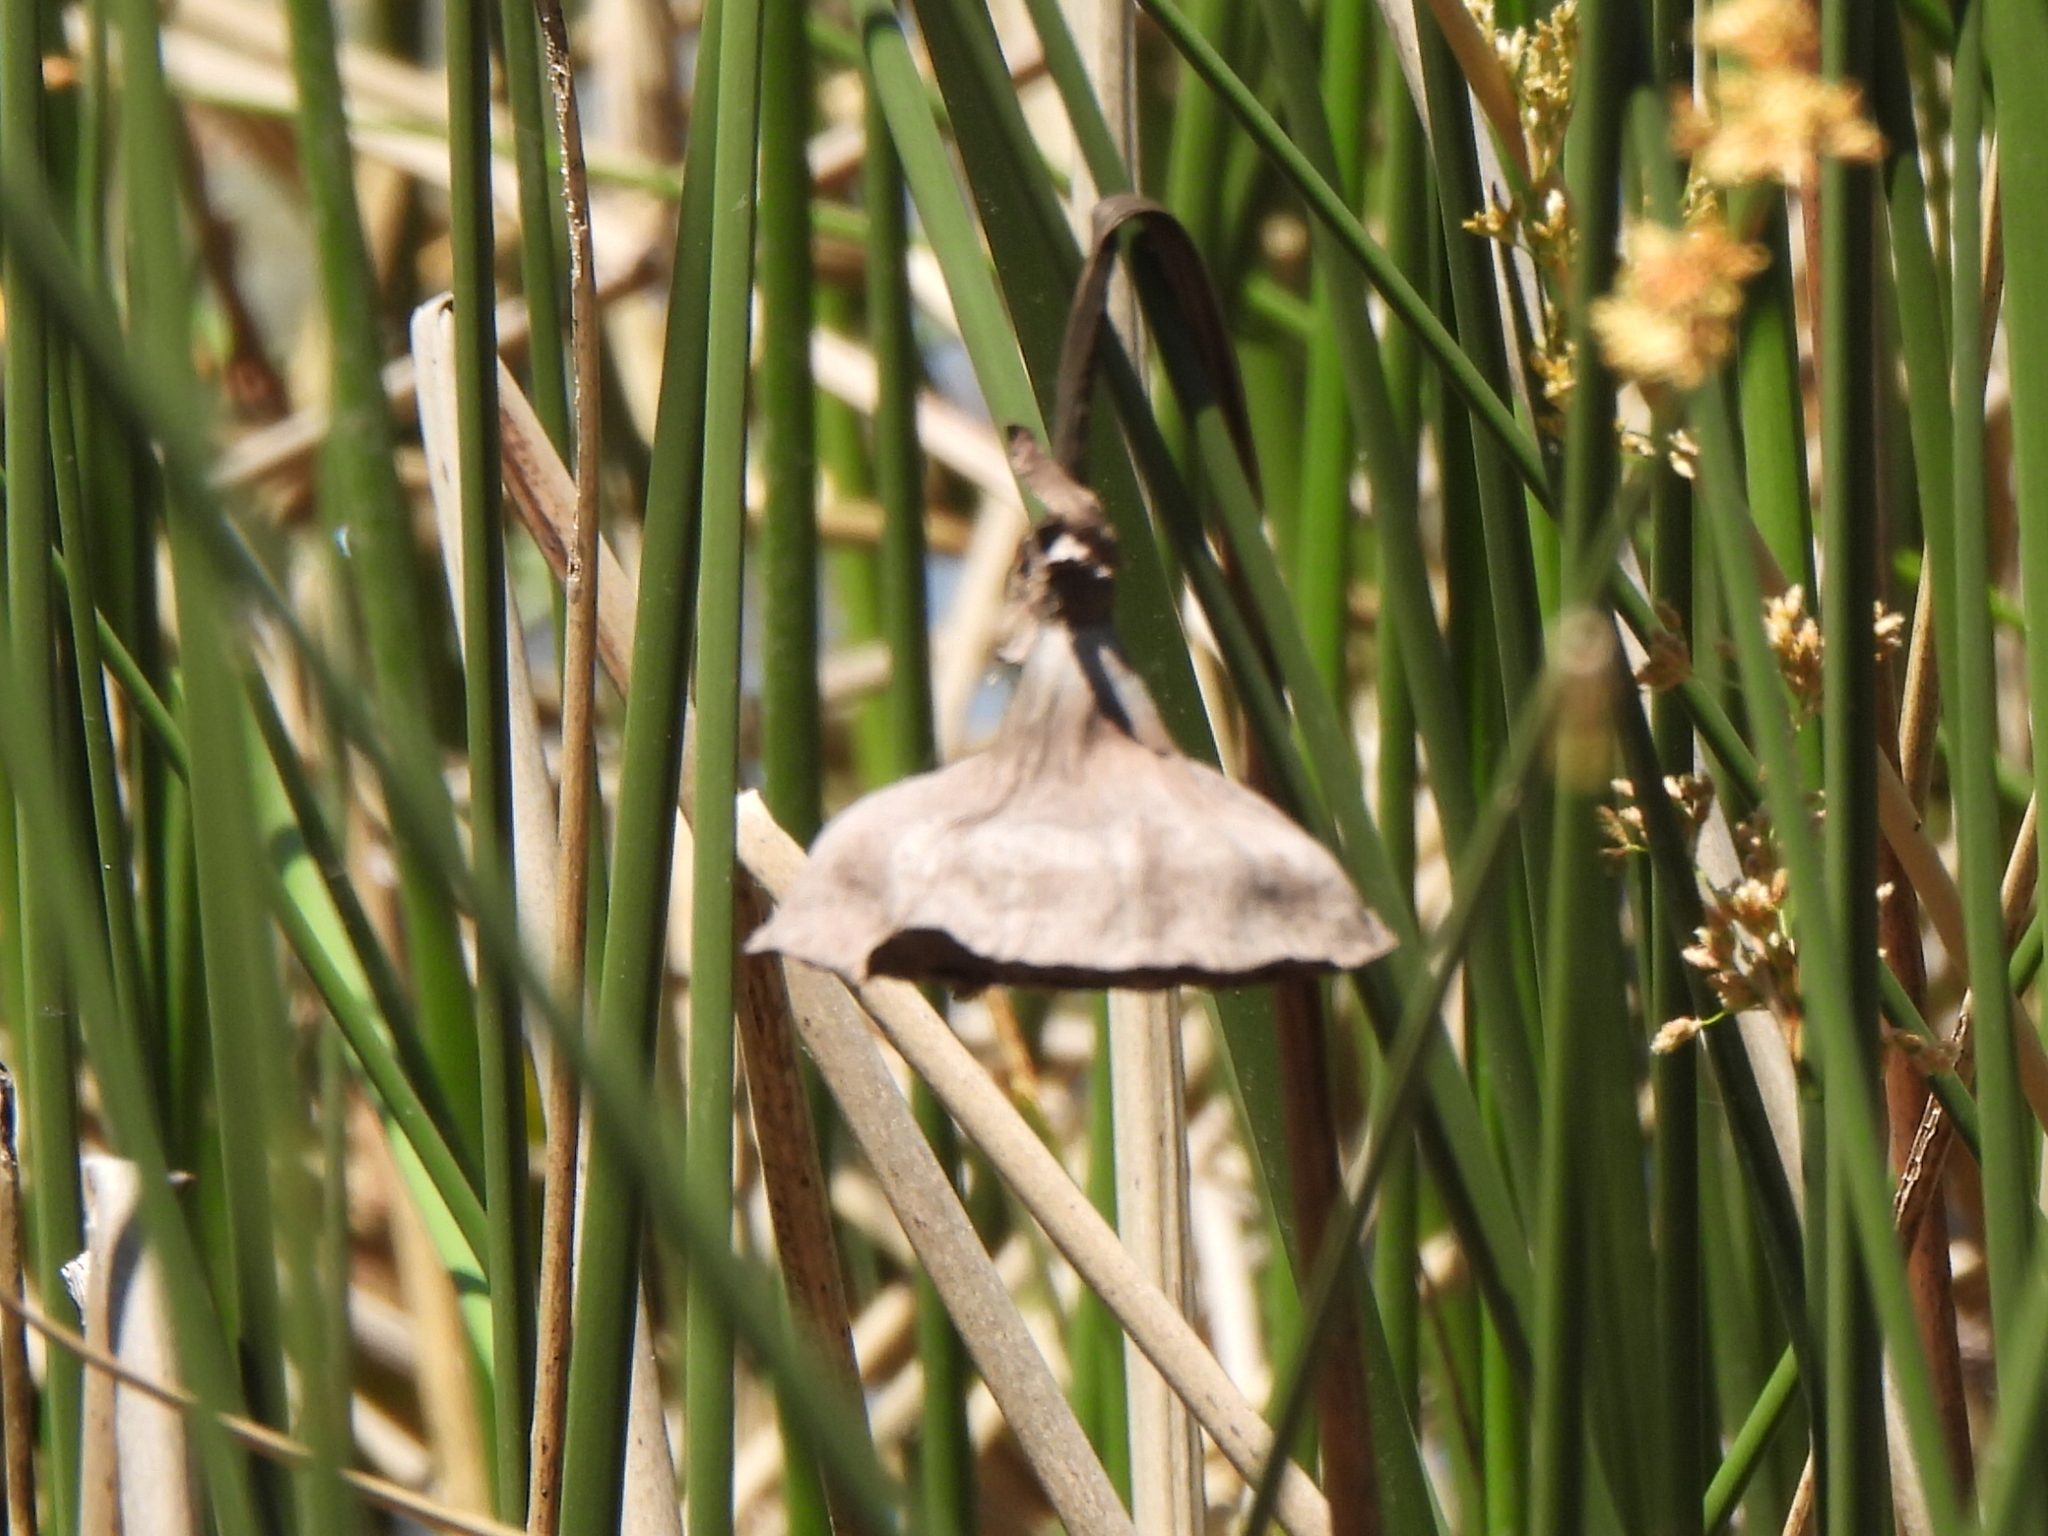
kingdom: Plantae
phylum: Tracheophyta
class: Magnoliopsida
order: Proteales
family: Nelumbonaceae
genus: Nelumbo
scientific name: Nelumbo lutea
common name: American lotus
